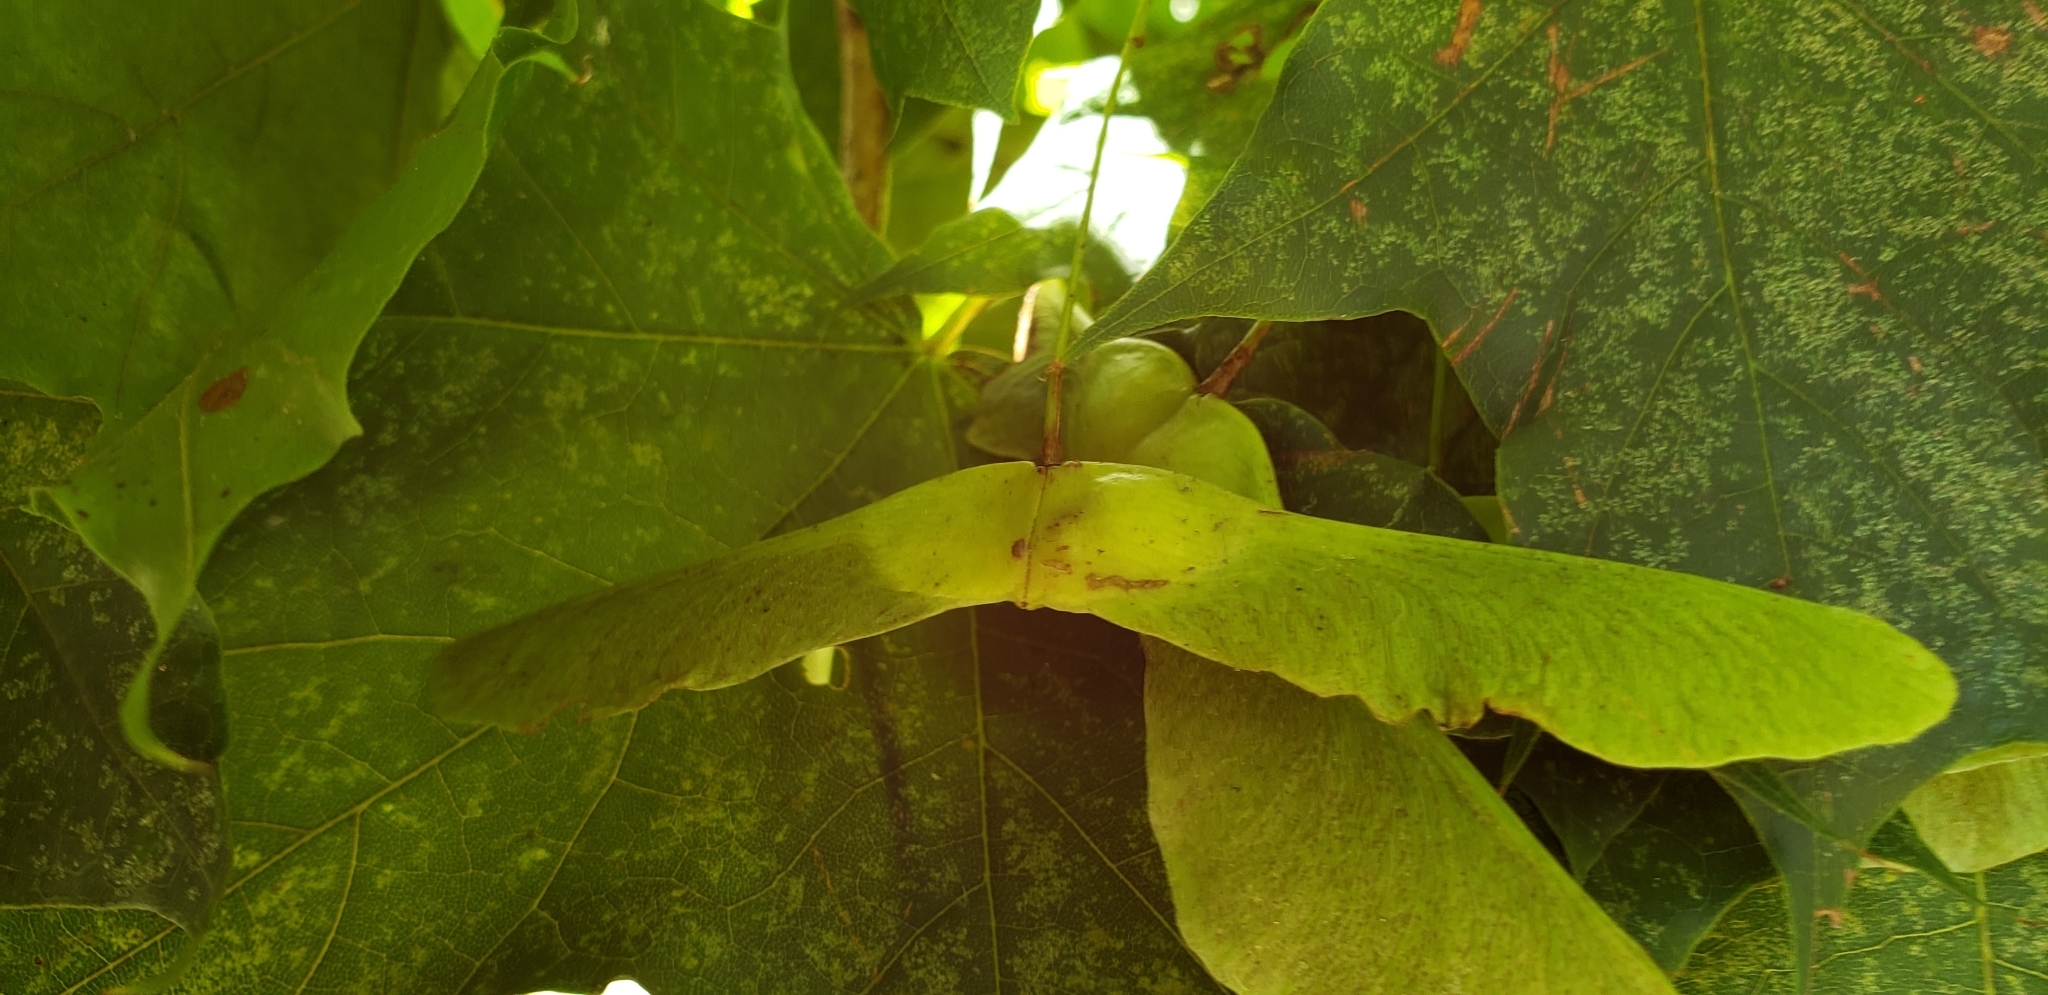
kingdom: Plantae
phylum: Tracheophyta
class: Magnoliopsida
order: Sapindales
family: Sapindaceae
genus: Acer
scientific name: Acer platanoides
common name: Norway maple
